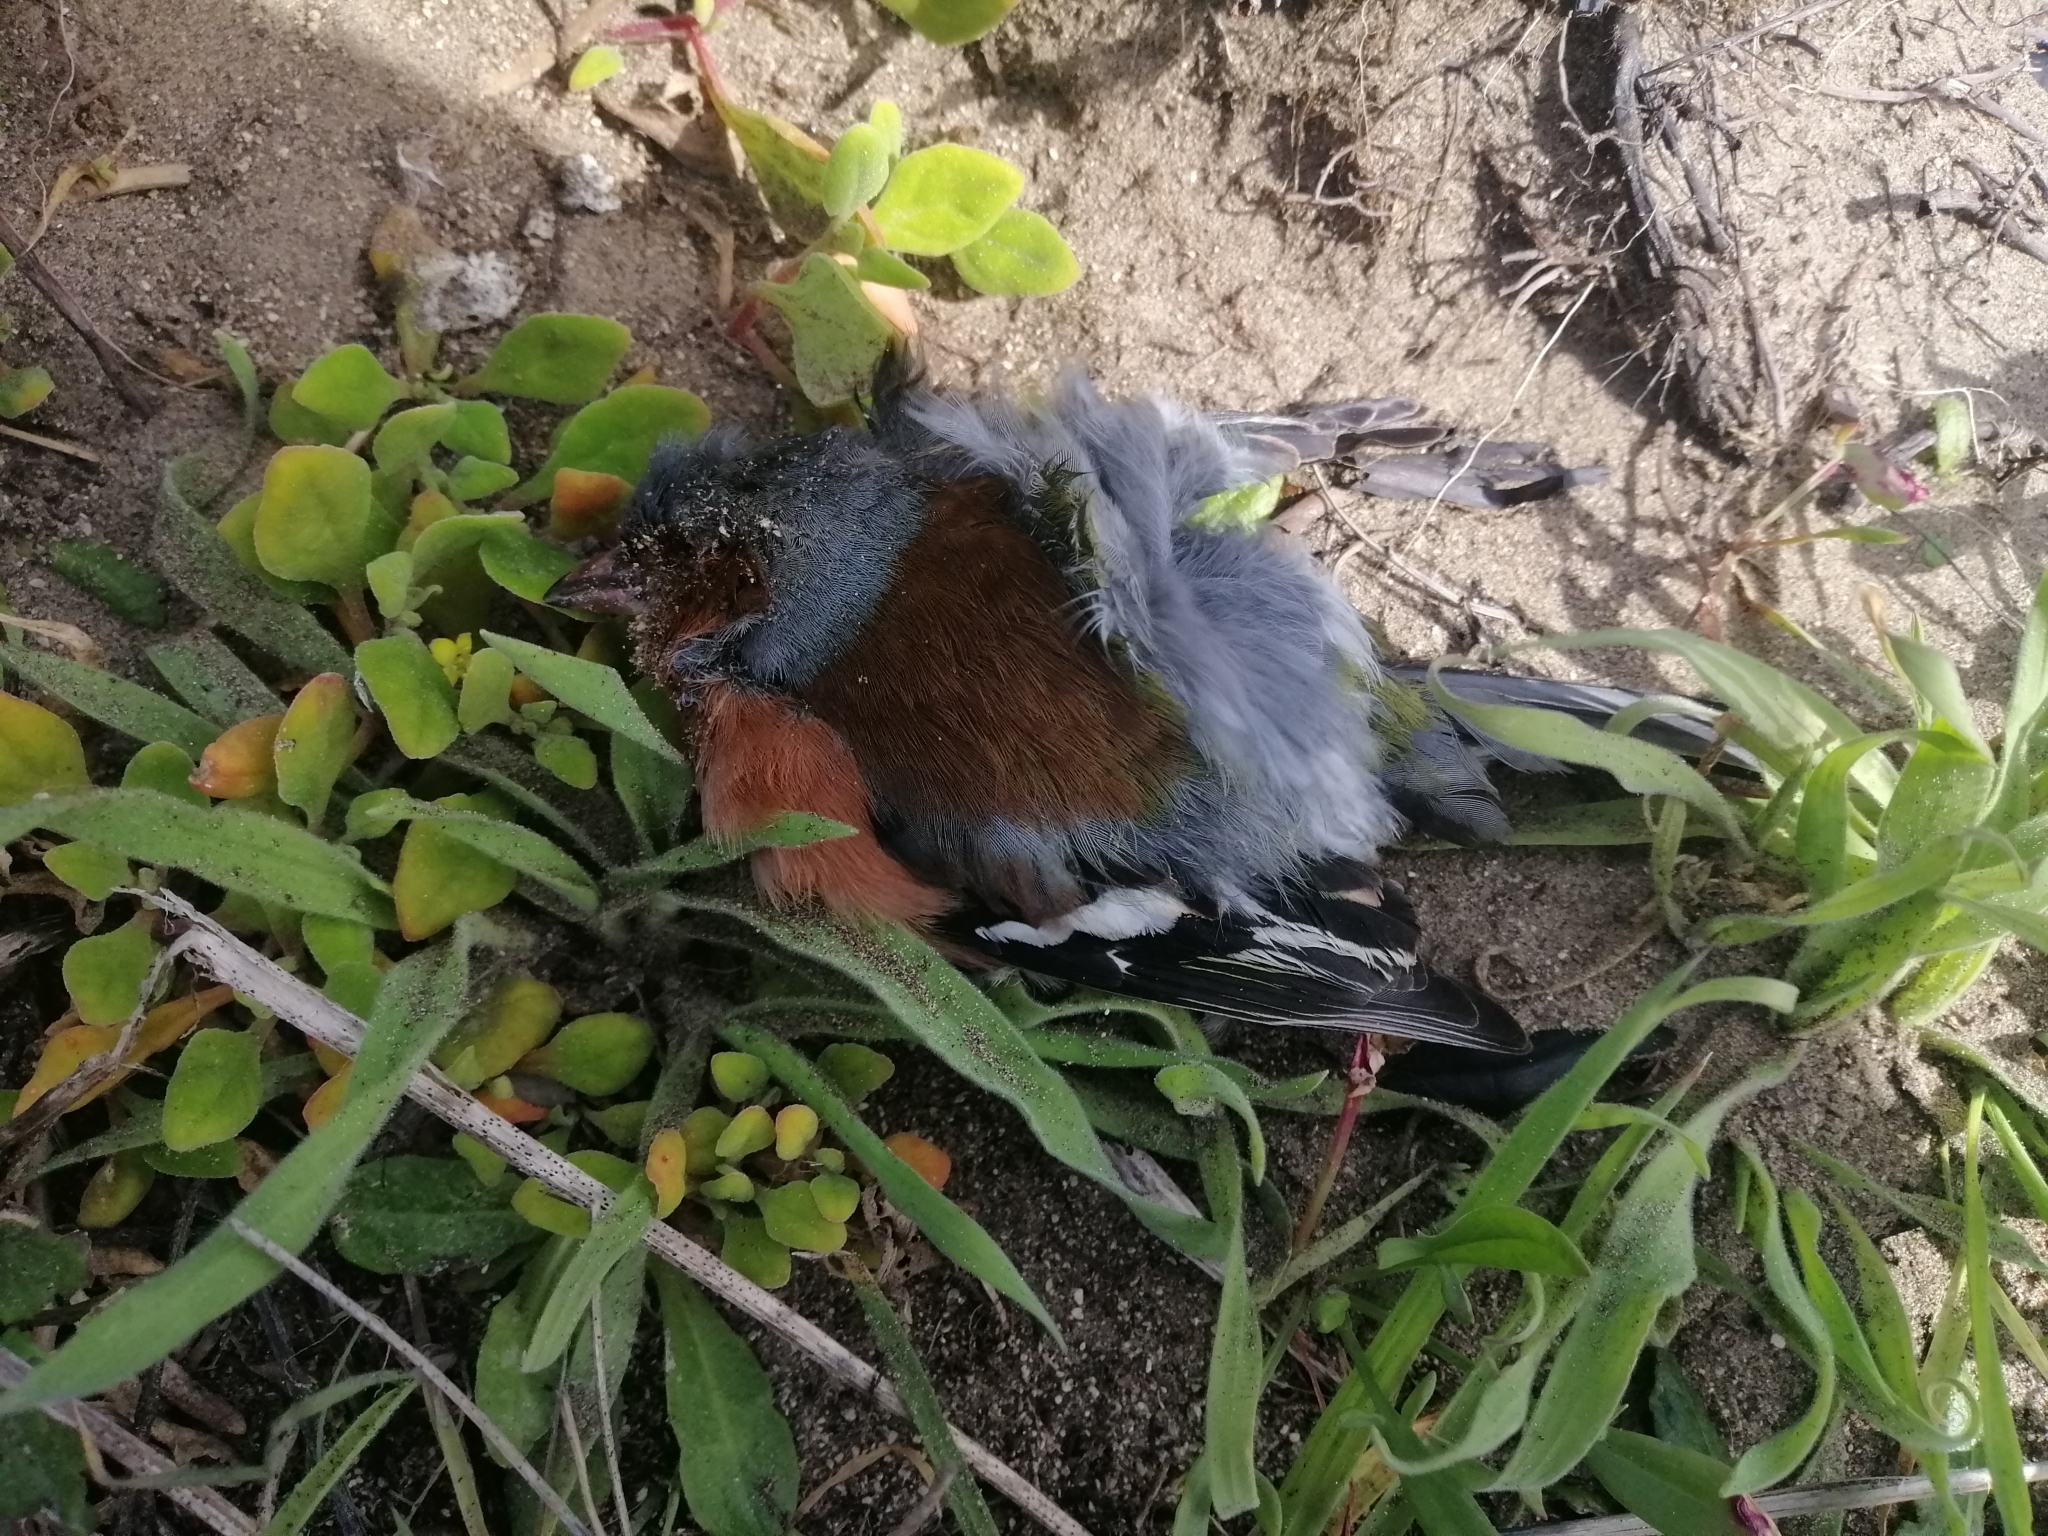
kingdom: Animalia
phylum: Chordata
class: Aves
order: Passeriformes
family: Fringillidae
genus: Fringilla
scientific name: Fringilla coelebs
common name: Common chaffinch
